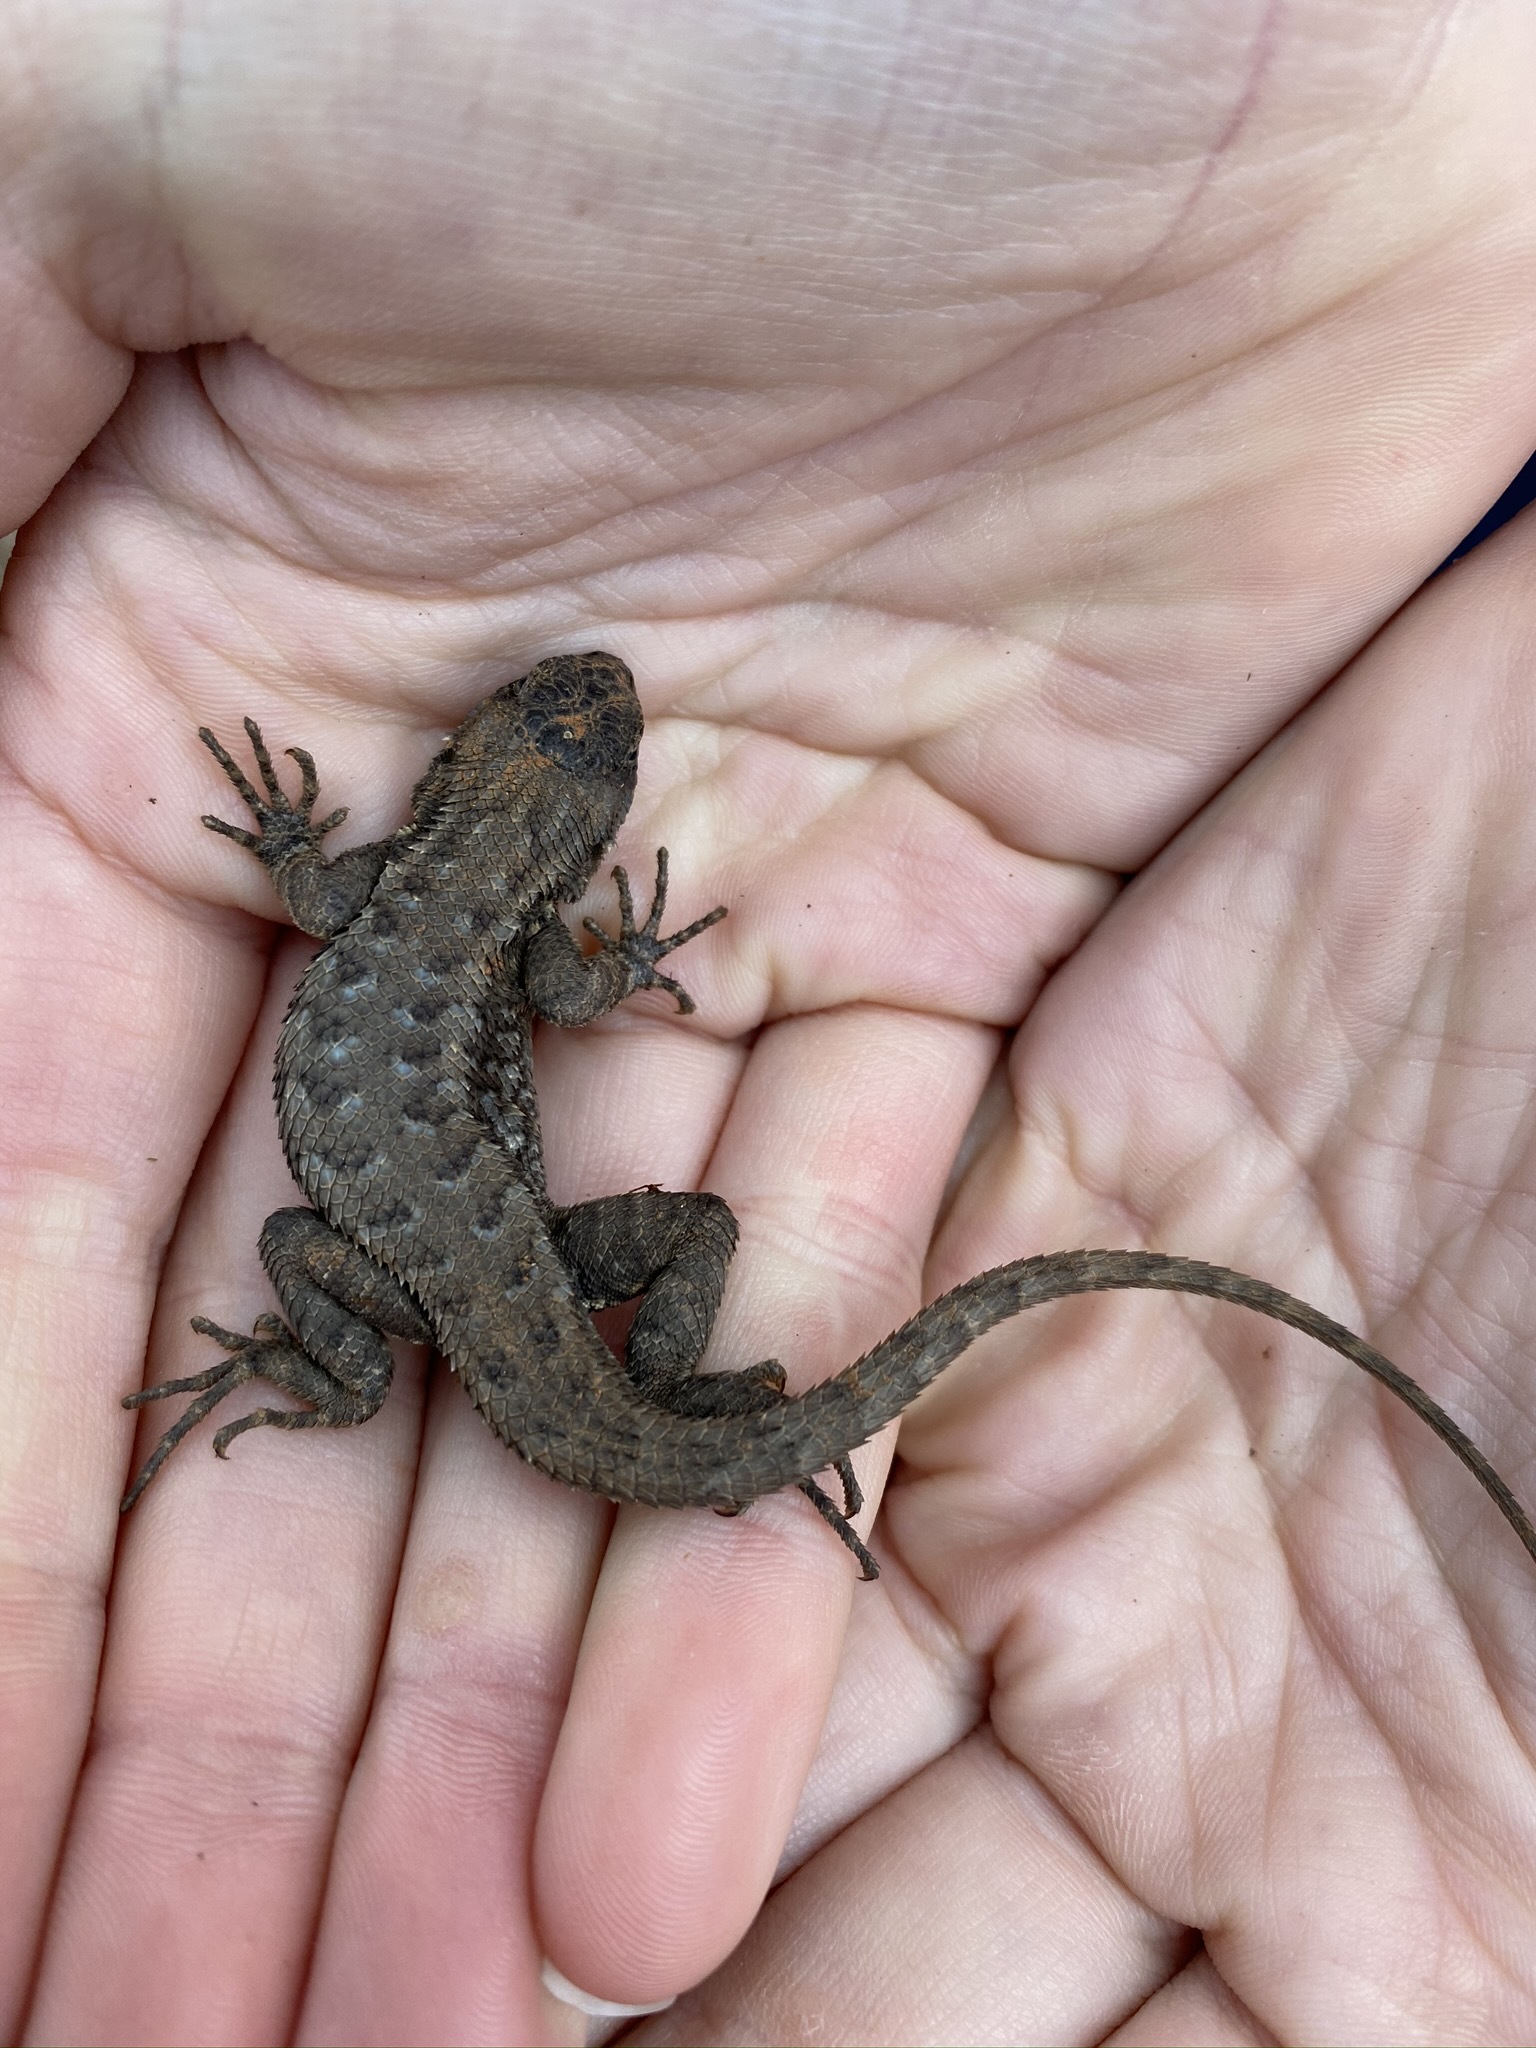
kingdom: Animalia
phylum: Chordata
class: Squamata
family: Phrynosomatidae
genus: Sceloporus
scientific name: Sceloporus occidentalis
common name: Western fence lizard
